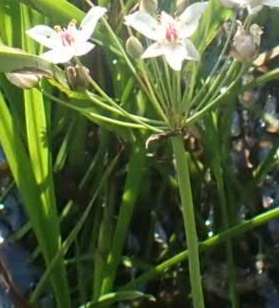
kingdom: Plantae
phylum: Tracheophyta
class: Liliopsida
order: Alismatales
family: Butomaceae
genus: Butomus
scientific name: Butomus umbellatus
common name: Flowering-rush
